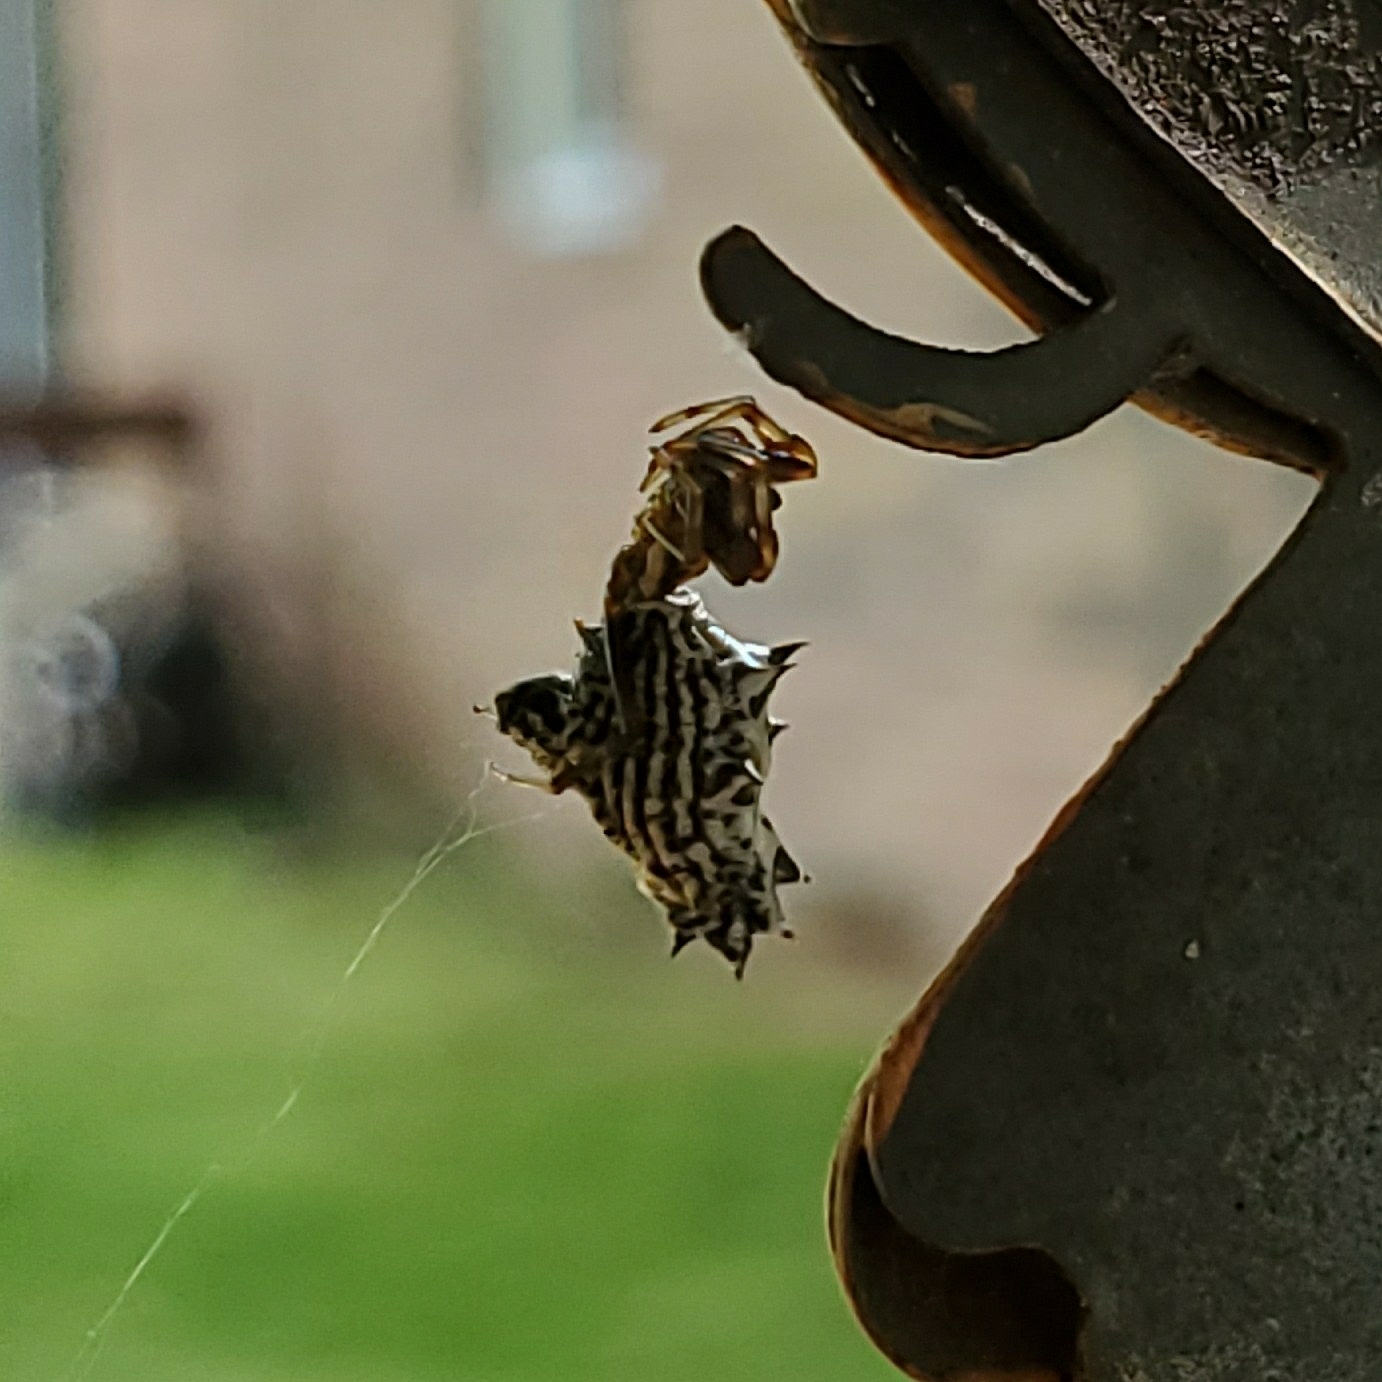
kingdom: Animalia
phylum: Arthropoda
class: Arachnida
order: Araneae
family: Araneidae
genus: Micrathena
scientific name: Micrathena gracilis
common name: Orb weavers
